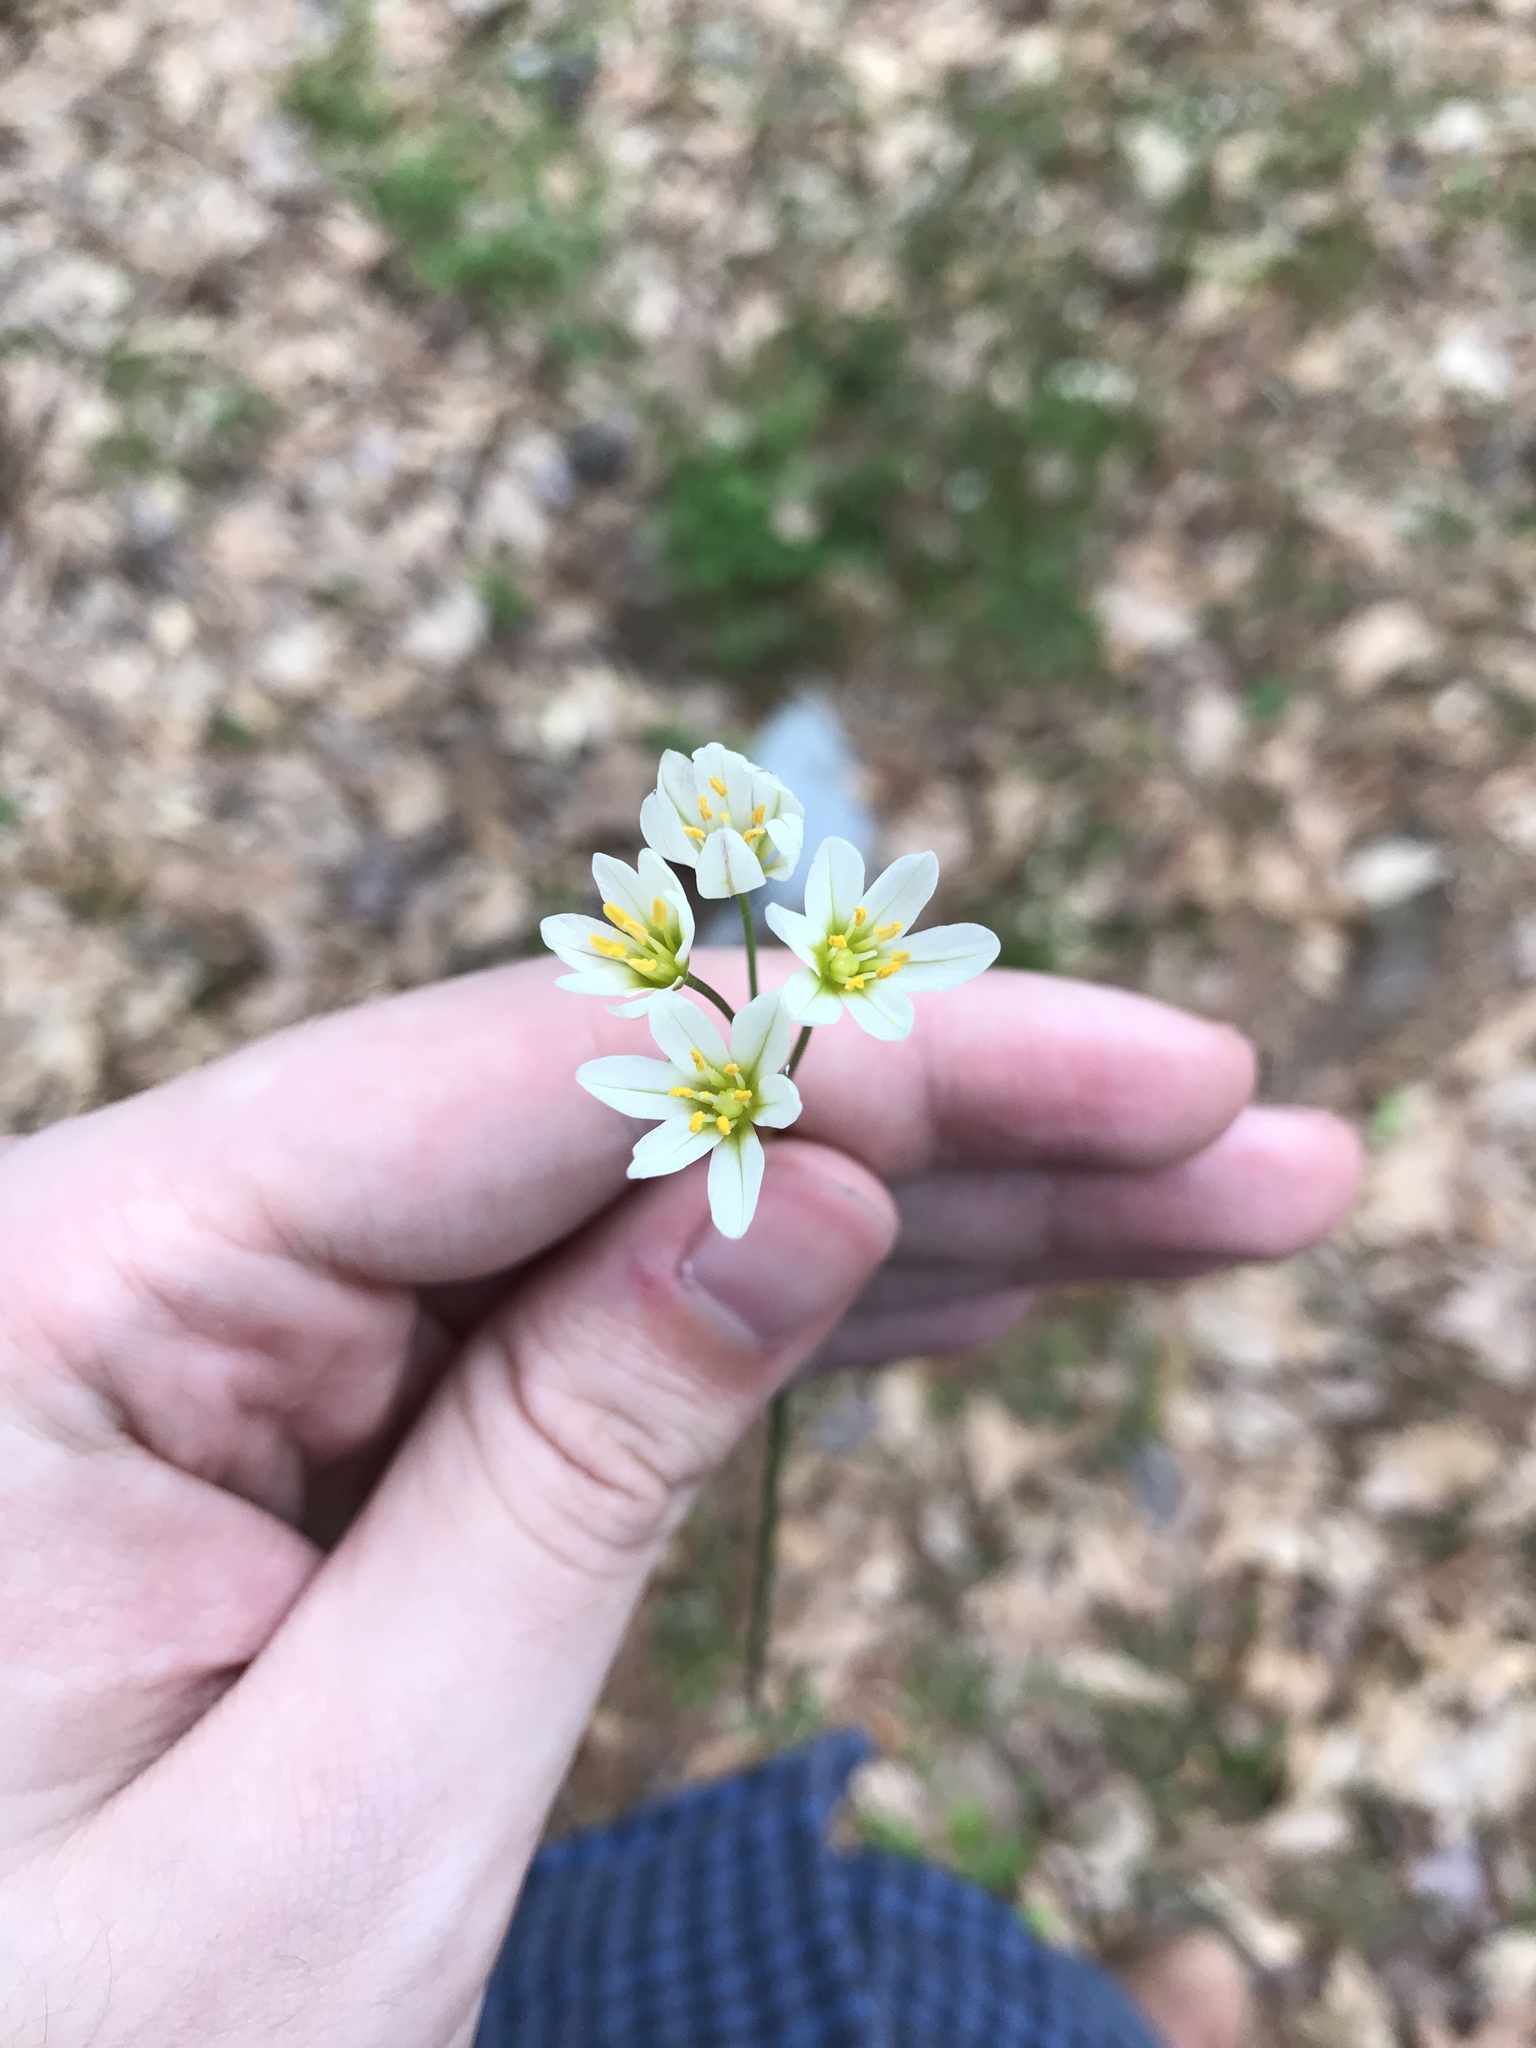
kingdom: Plantae
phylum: Tracheophyta
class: Liliopsida
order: Asparagales
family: Amaryllidaceae
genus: Nothoscordum
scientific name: Nothoscordum bivalve
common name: Crow-poison
